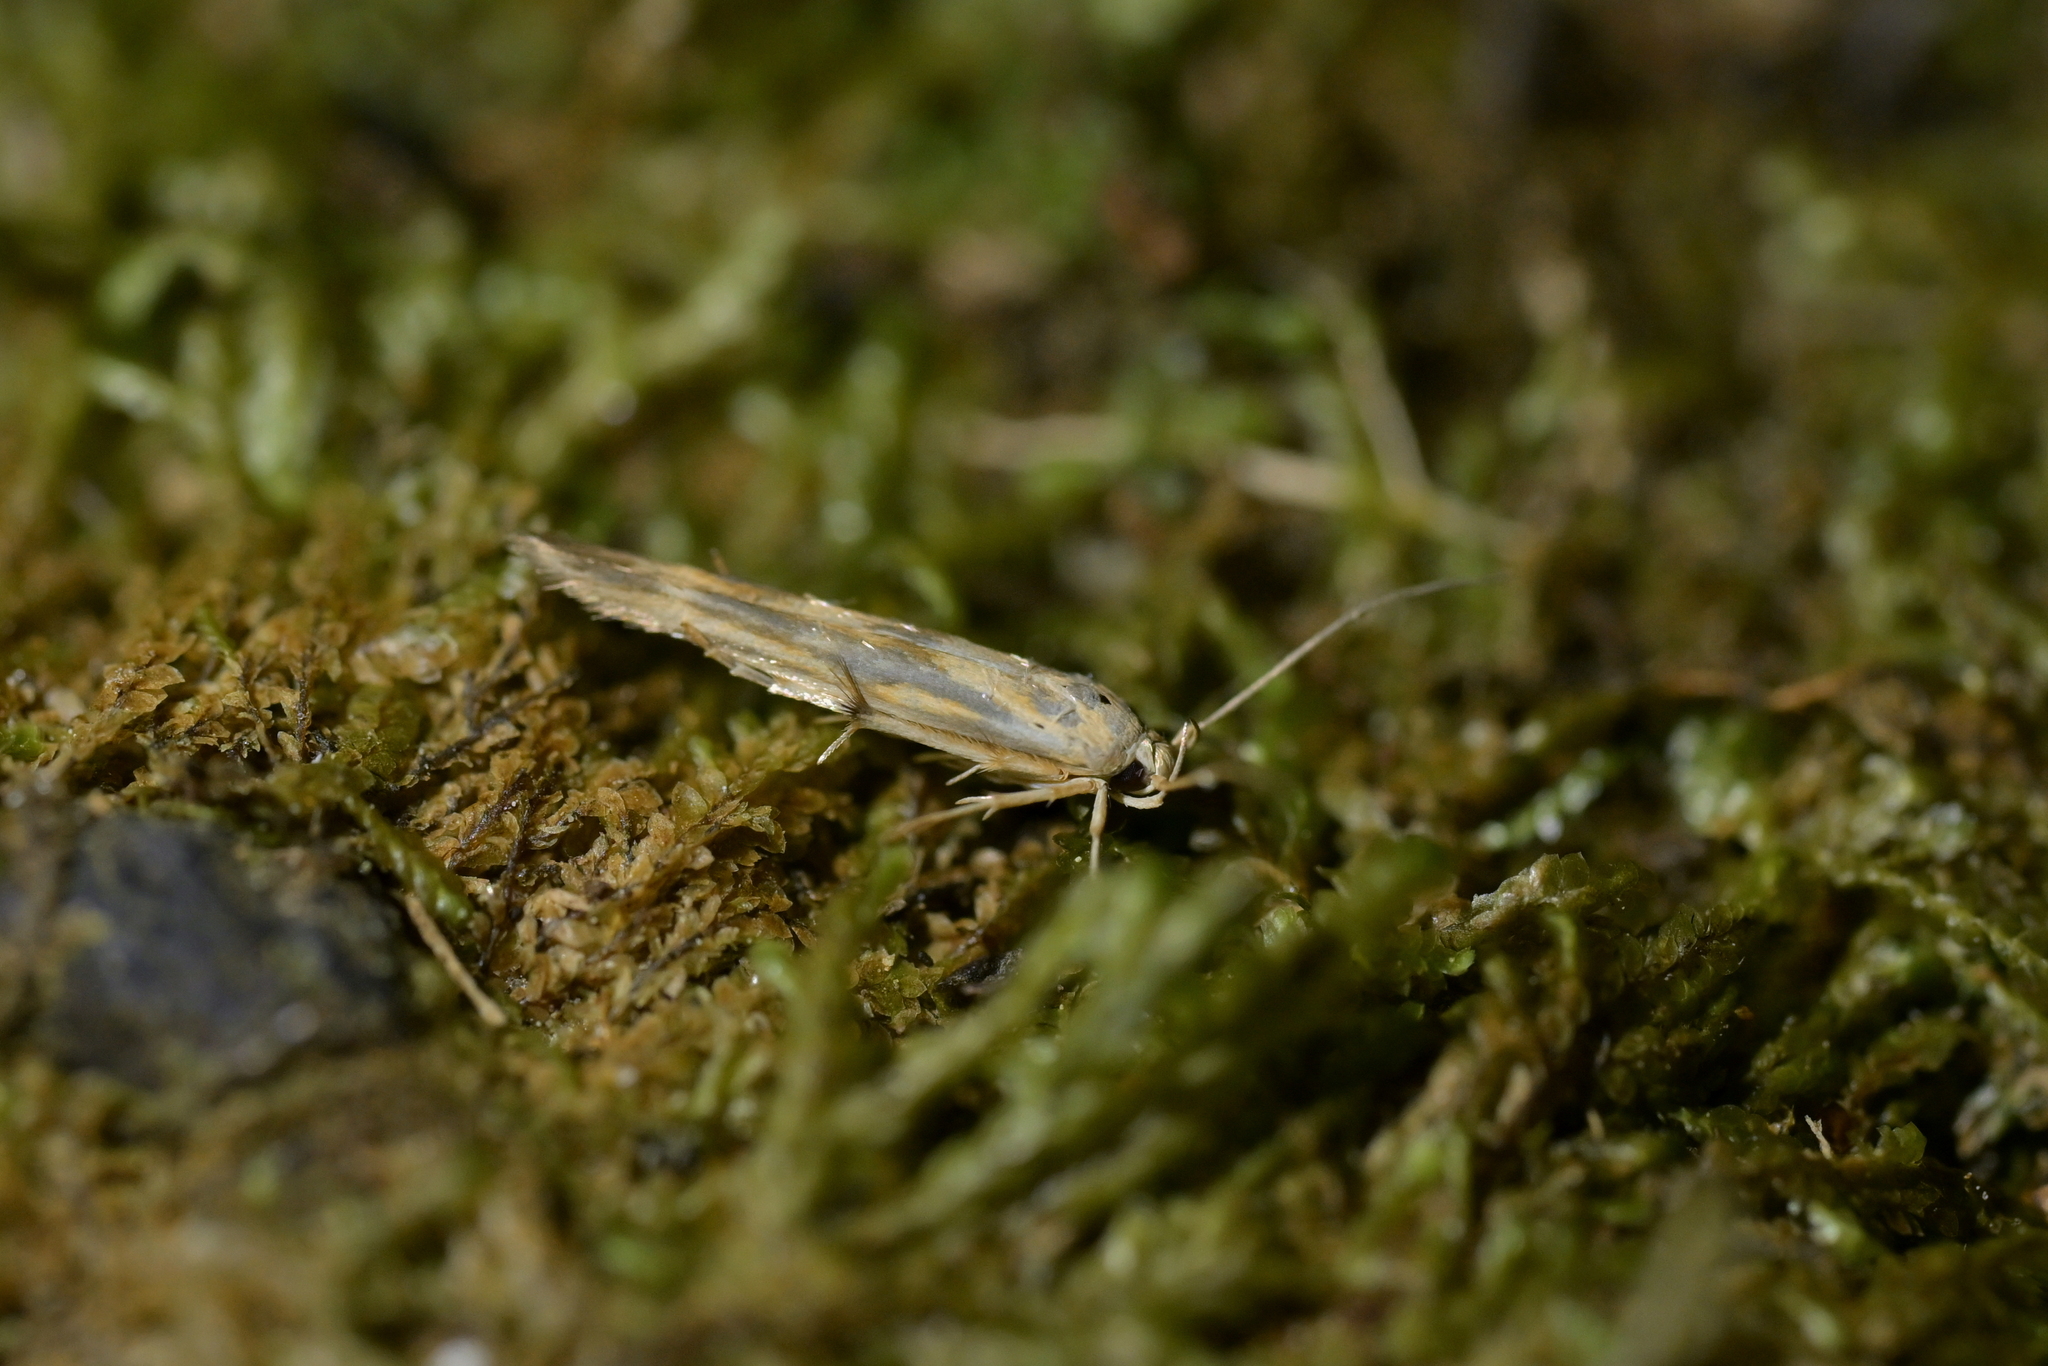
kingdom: Animalia
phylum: Arthropoda
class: Insecta
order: Lepidoptera
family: Stathmopodidae
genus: Stathmopoda
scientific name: Stathmopoda plumbiflua
